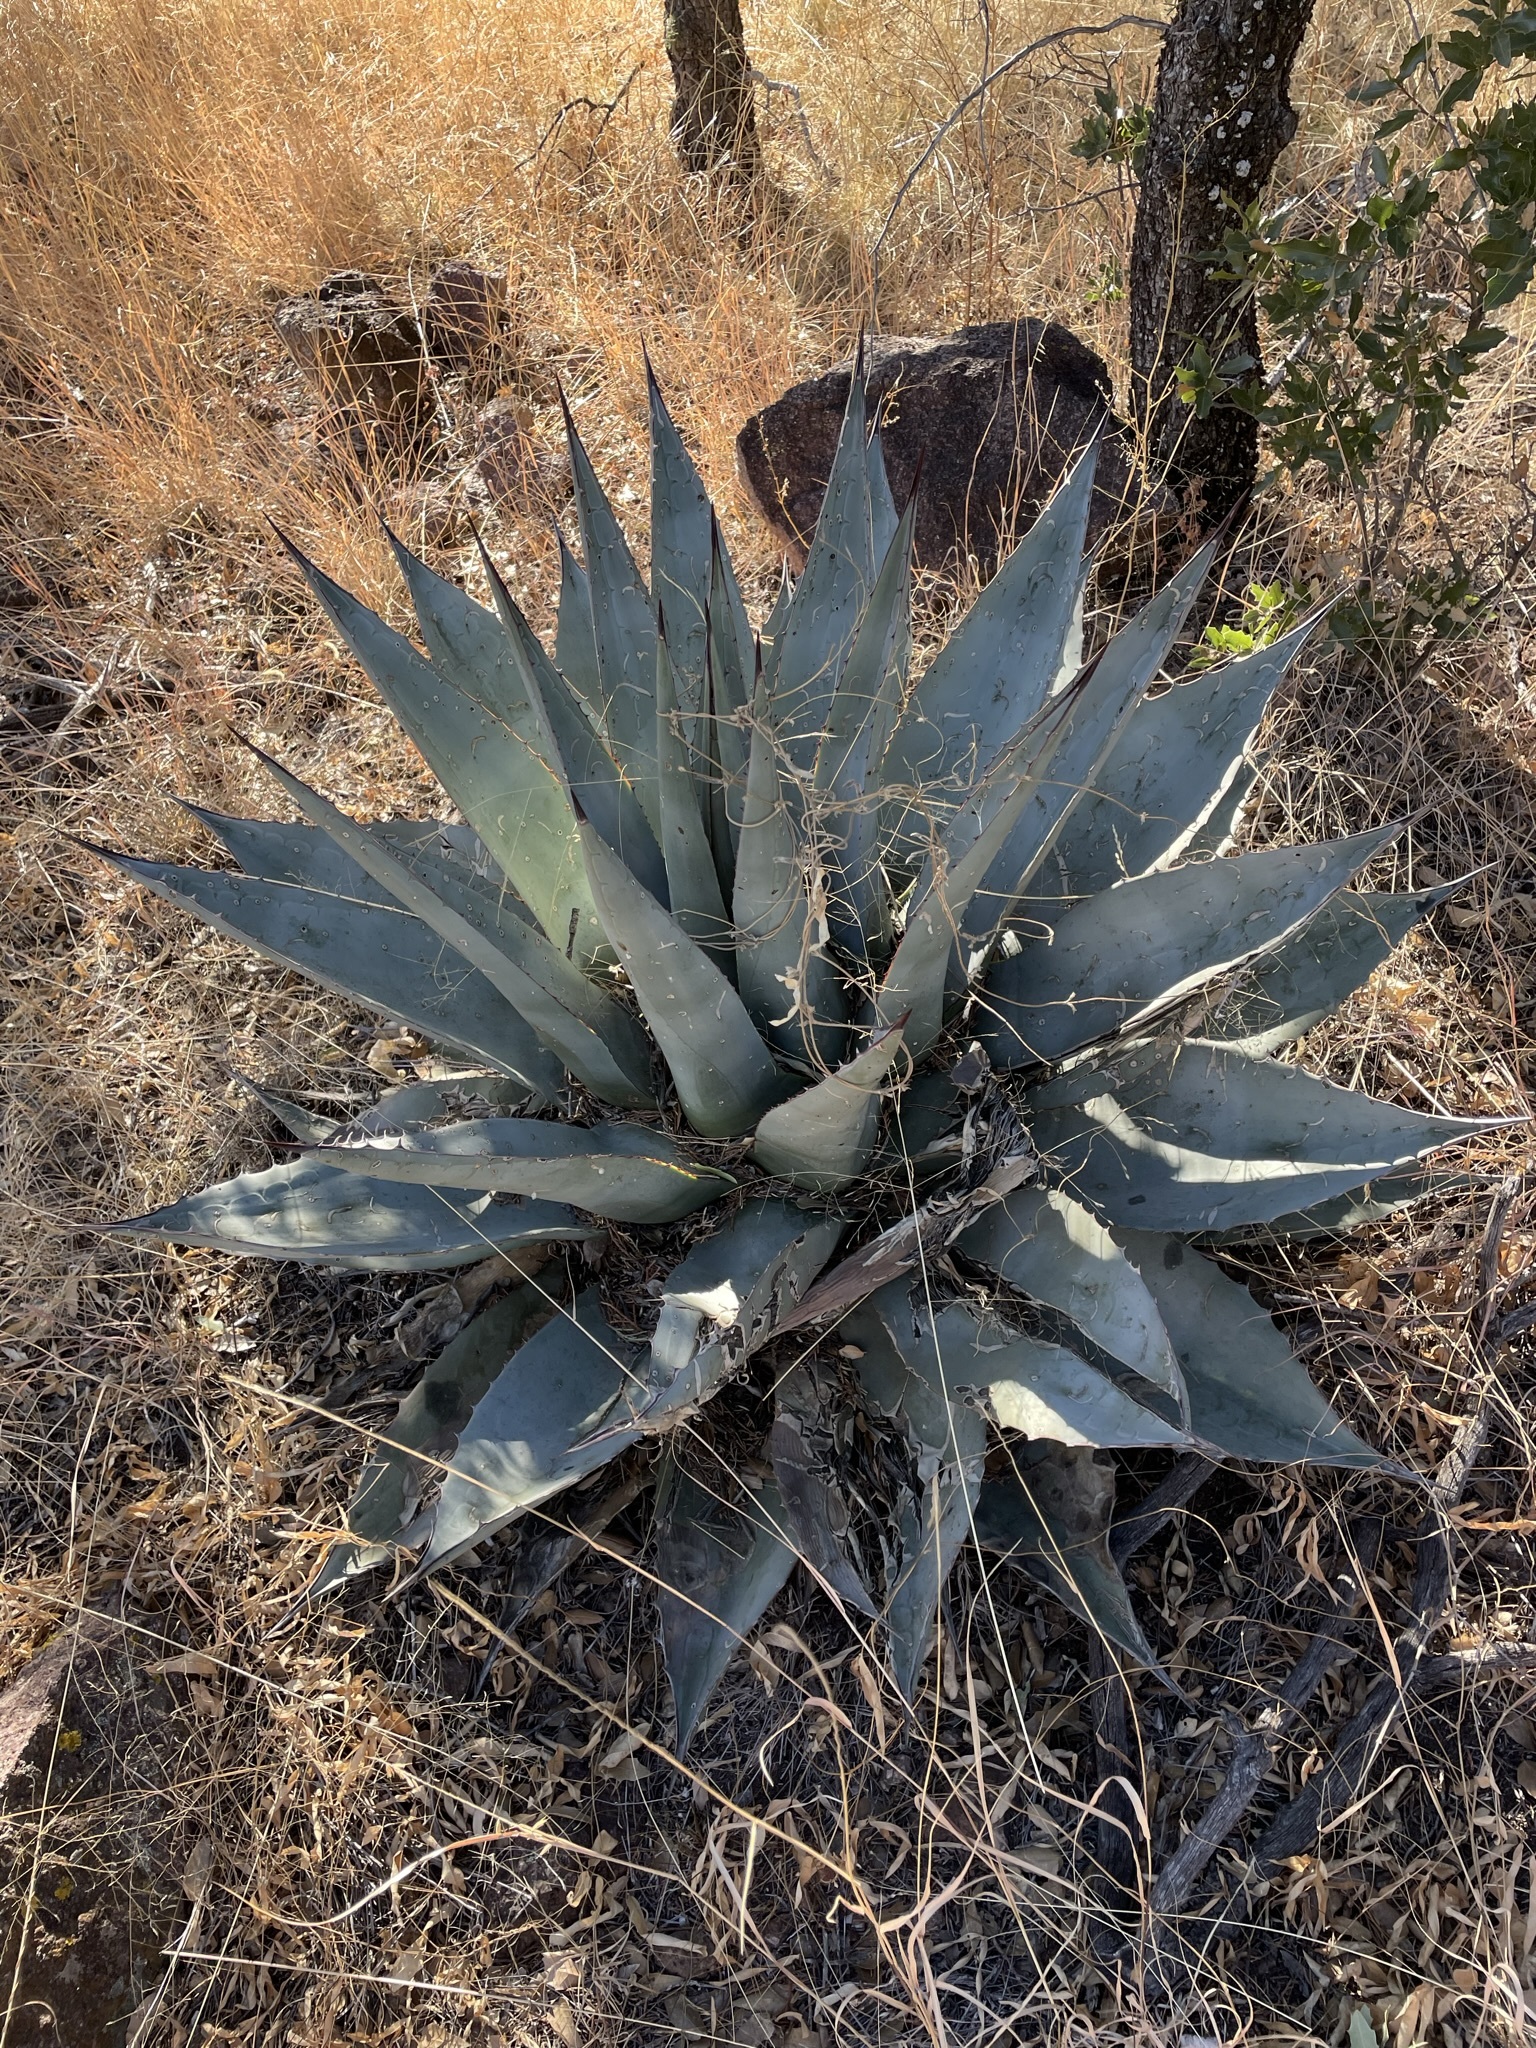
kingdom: Plantae
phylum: Tracheophyta
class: Liliopsida
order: Asparagales
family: Asparagaceae
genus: Agave
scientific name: Agave havardiana
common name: Havard agave
